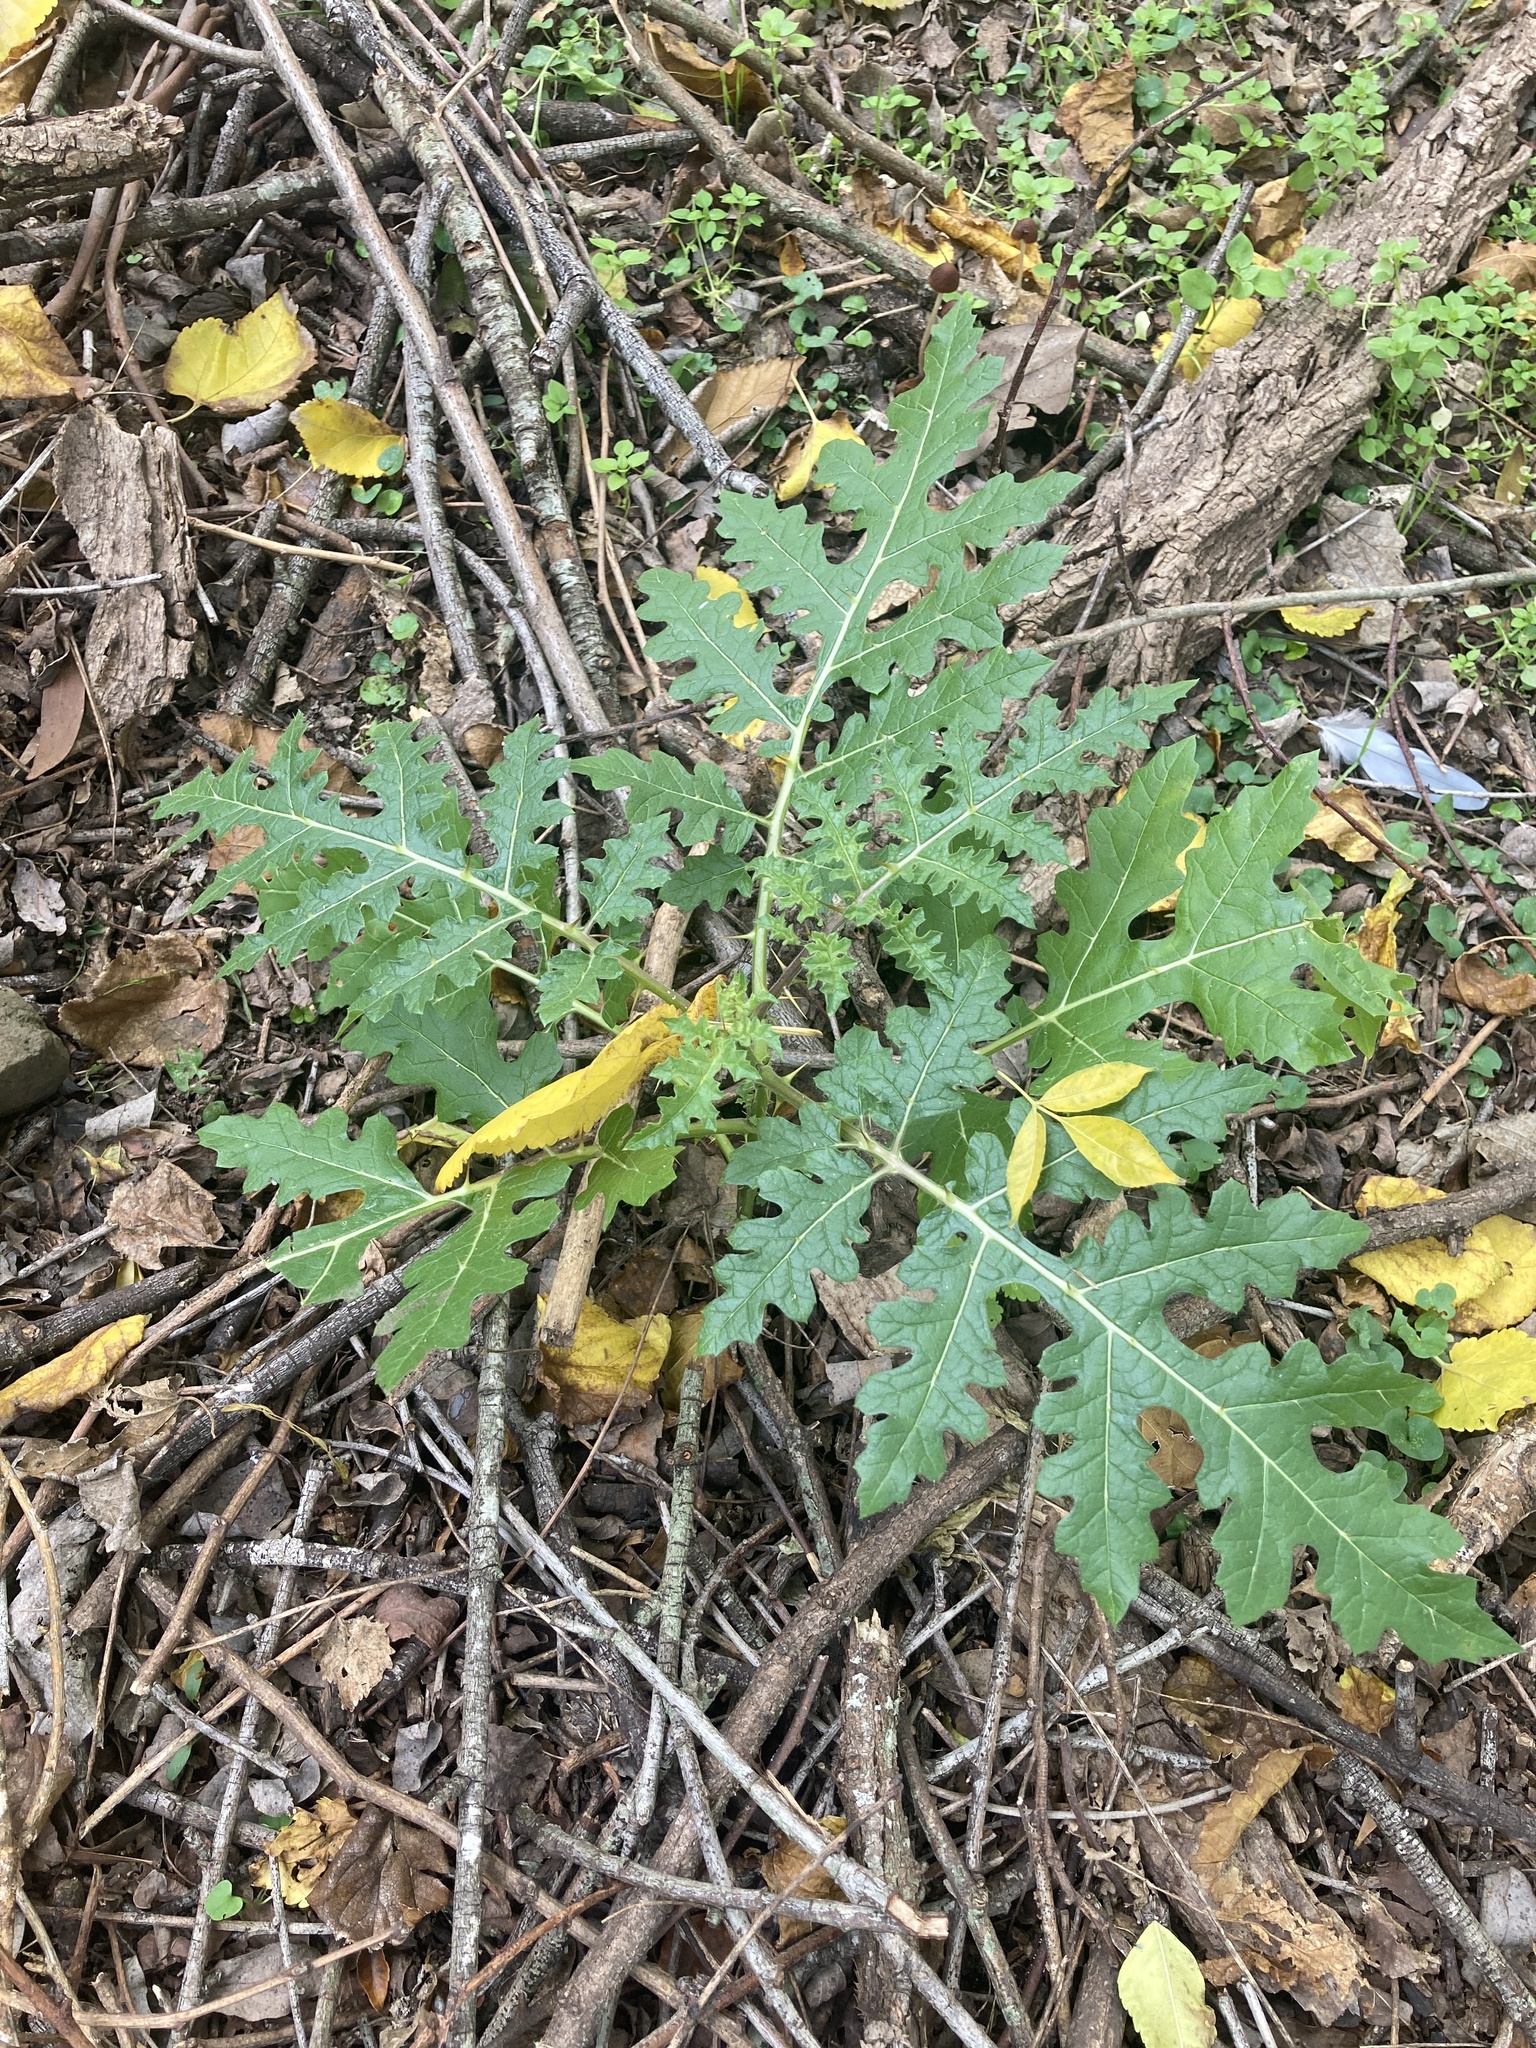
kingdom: Plantae
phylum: Tracheophyta
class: Magnoliopsida
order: Solanales
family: Solanaceae
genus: Solanum
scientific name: Solanum sisymbriifolium
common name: Red buffalo-bur
